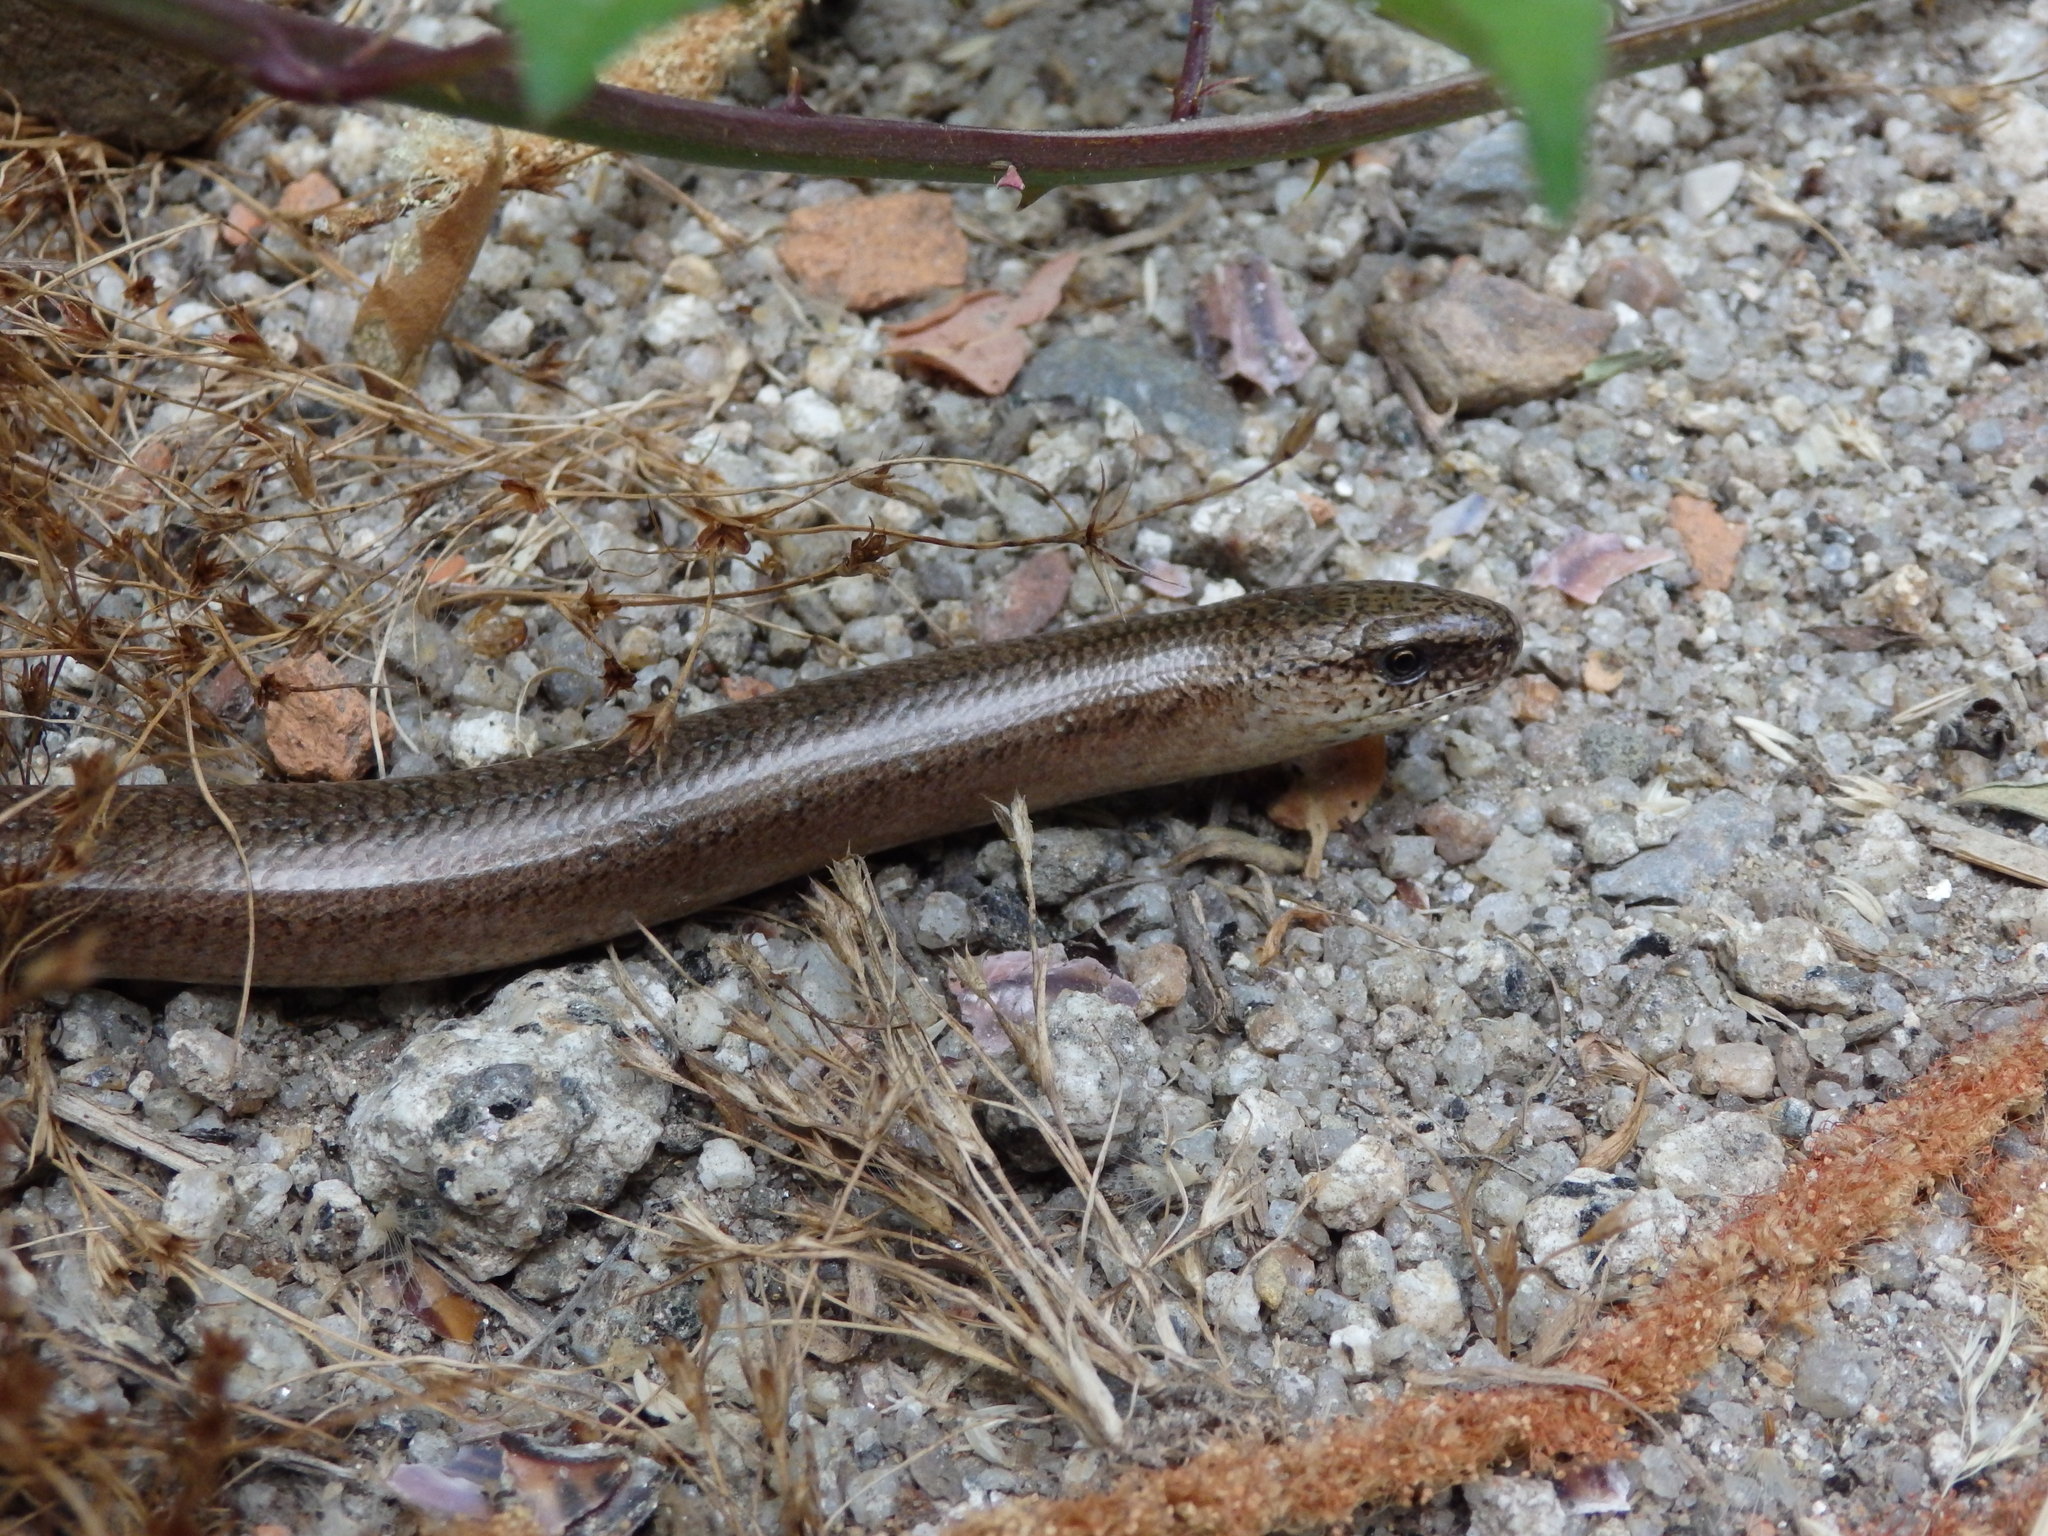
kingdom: Animalia
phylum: Chordata
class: Squamata
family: Anguidae
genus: Anguis
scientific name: Anguis fragilis
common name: Slow worm
